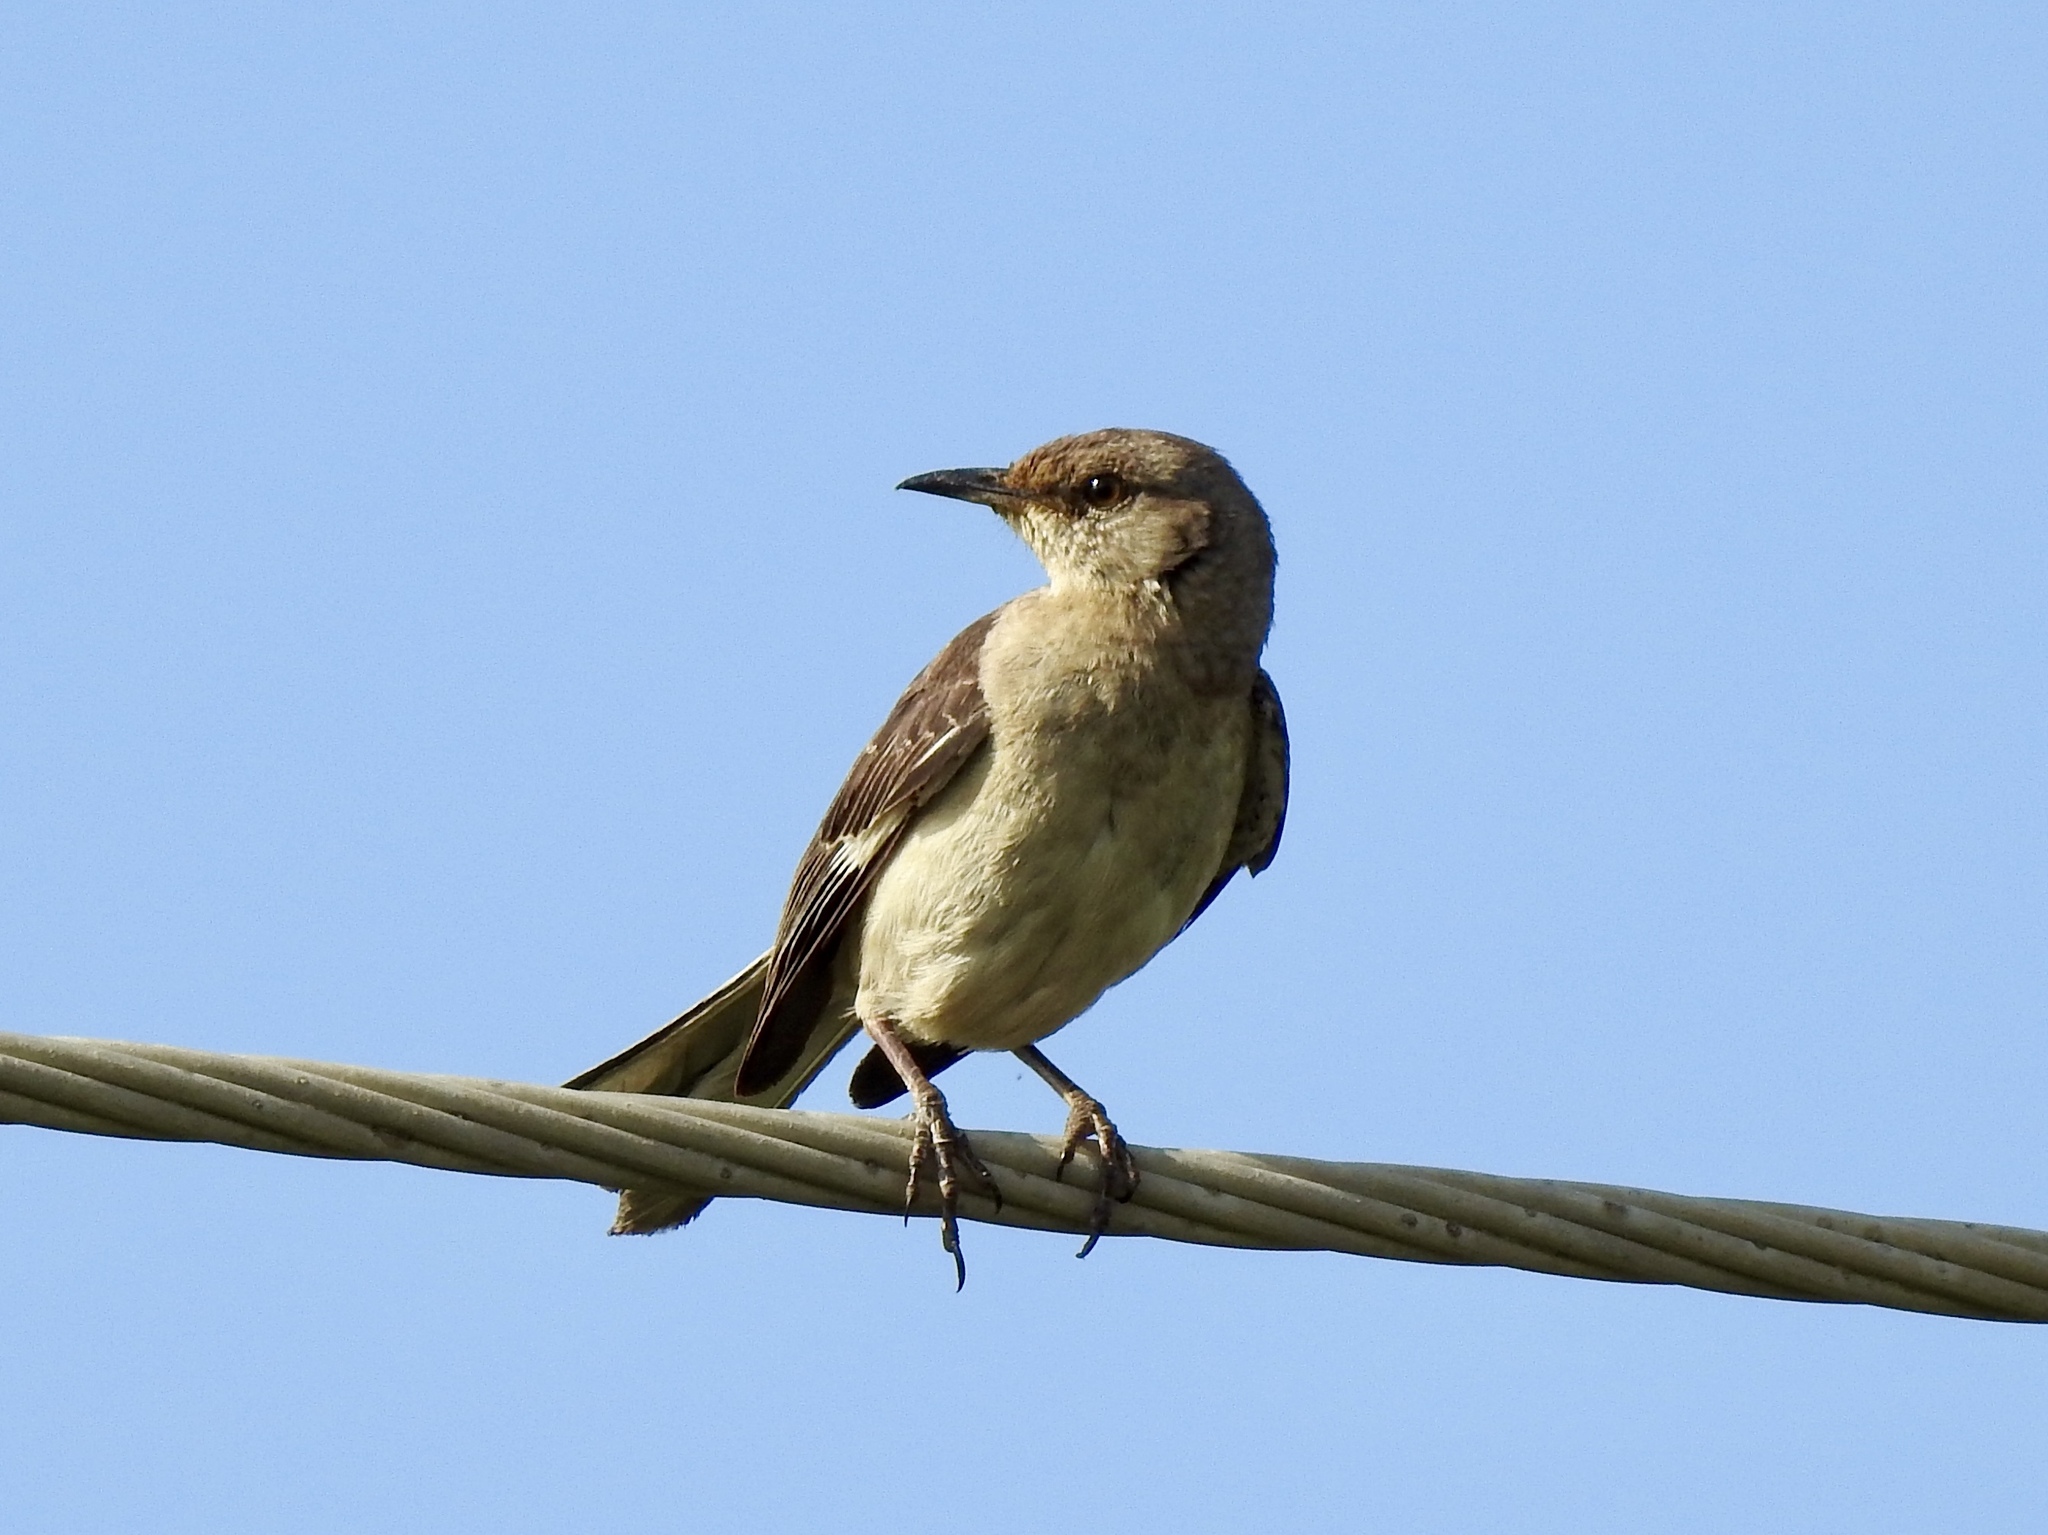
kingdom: Animalia
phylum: Chordata
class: Aves
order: Passeriformes
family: Mimidae
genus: Mimus
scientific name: Mimus polyglottos
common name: Northern mockingbird
